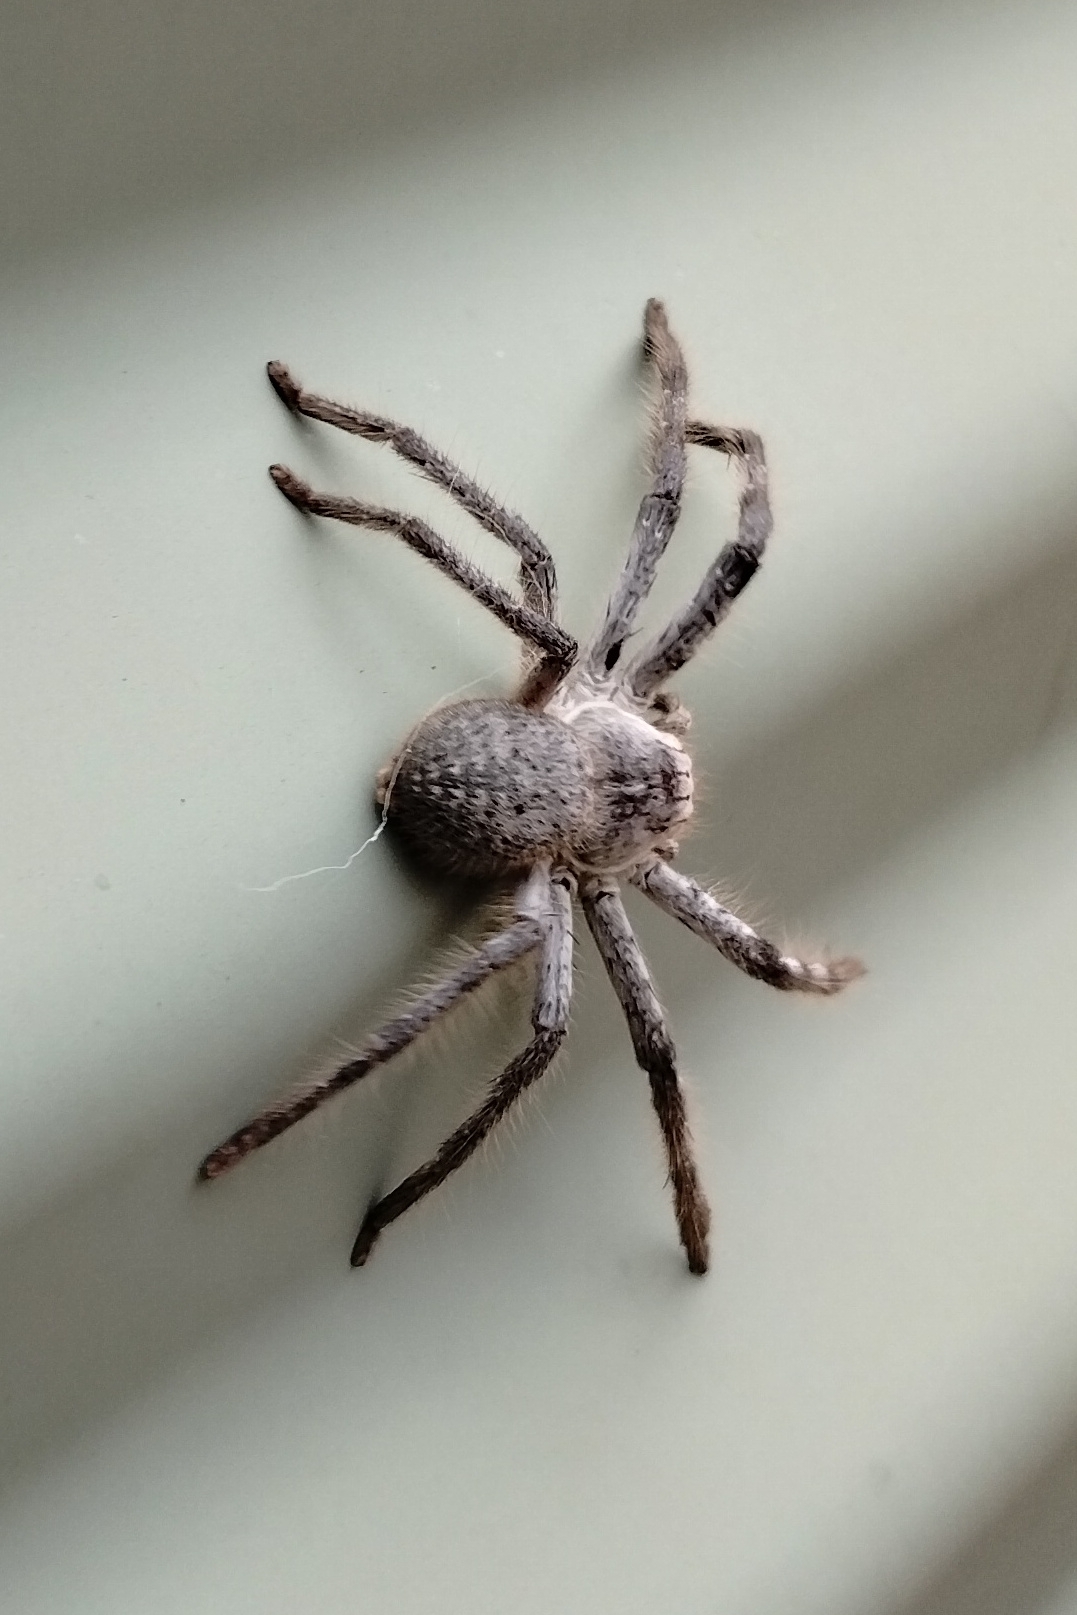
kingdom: Animalia
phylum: Arthropoda
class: Arachnida
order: Araneae
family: Sparassidae
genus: Isopedella
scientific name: Isopedella conspersa
